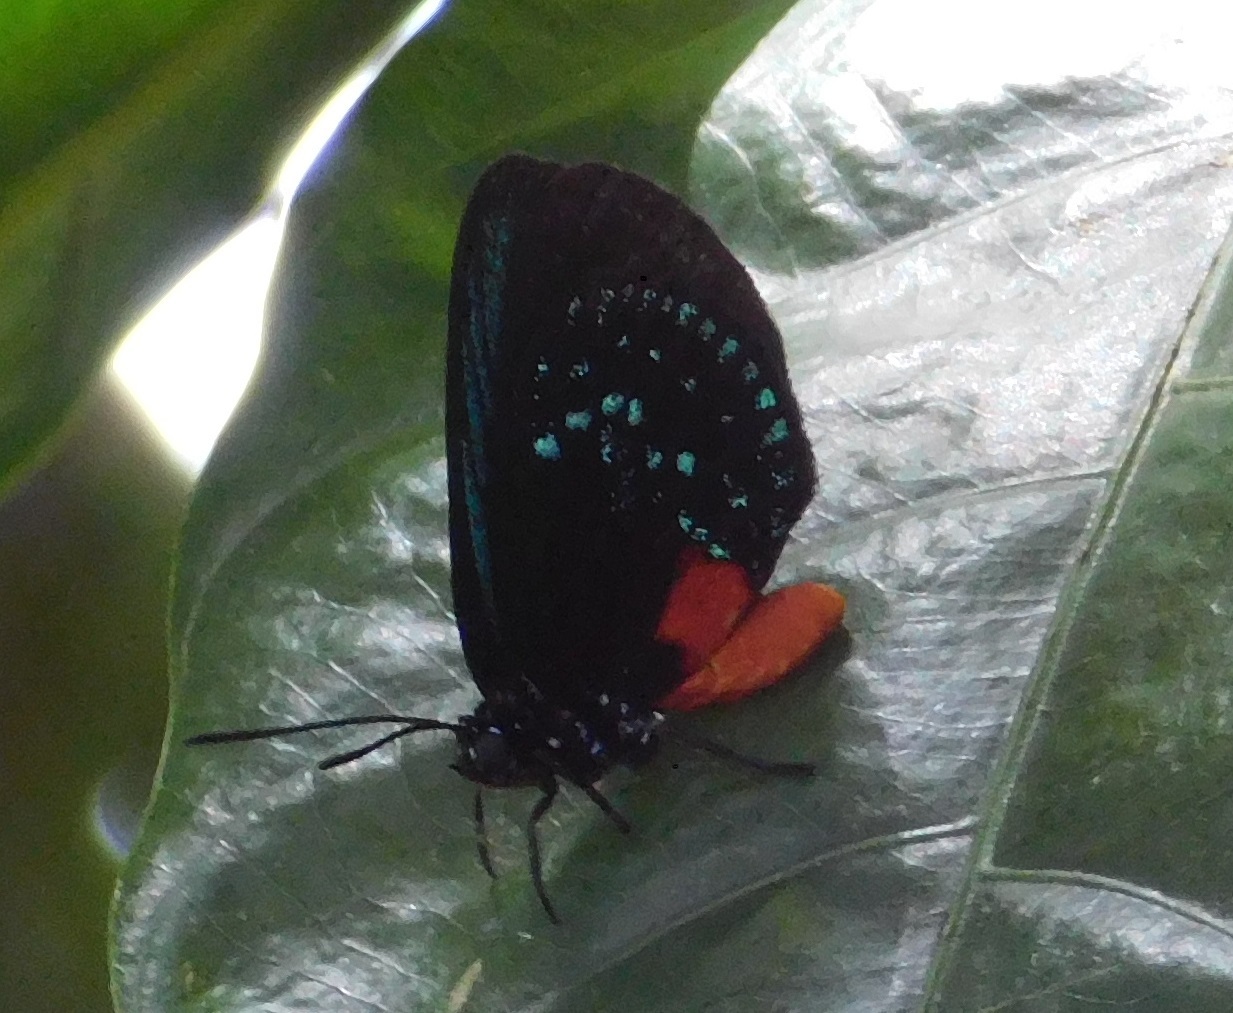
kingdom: Animalia
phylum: Arthropoda
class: Insecta
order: Lepidoptera
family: Lycaenidae
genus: Eumaeus
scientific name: Eumaeus atala
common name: Atala
